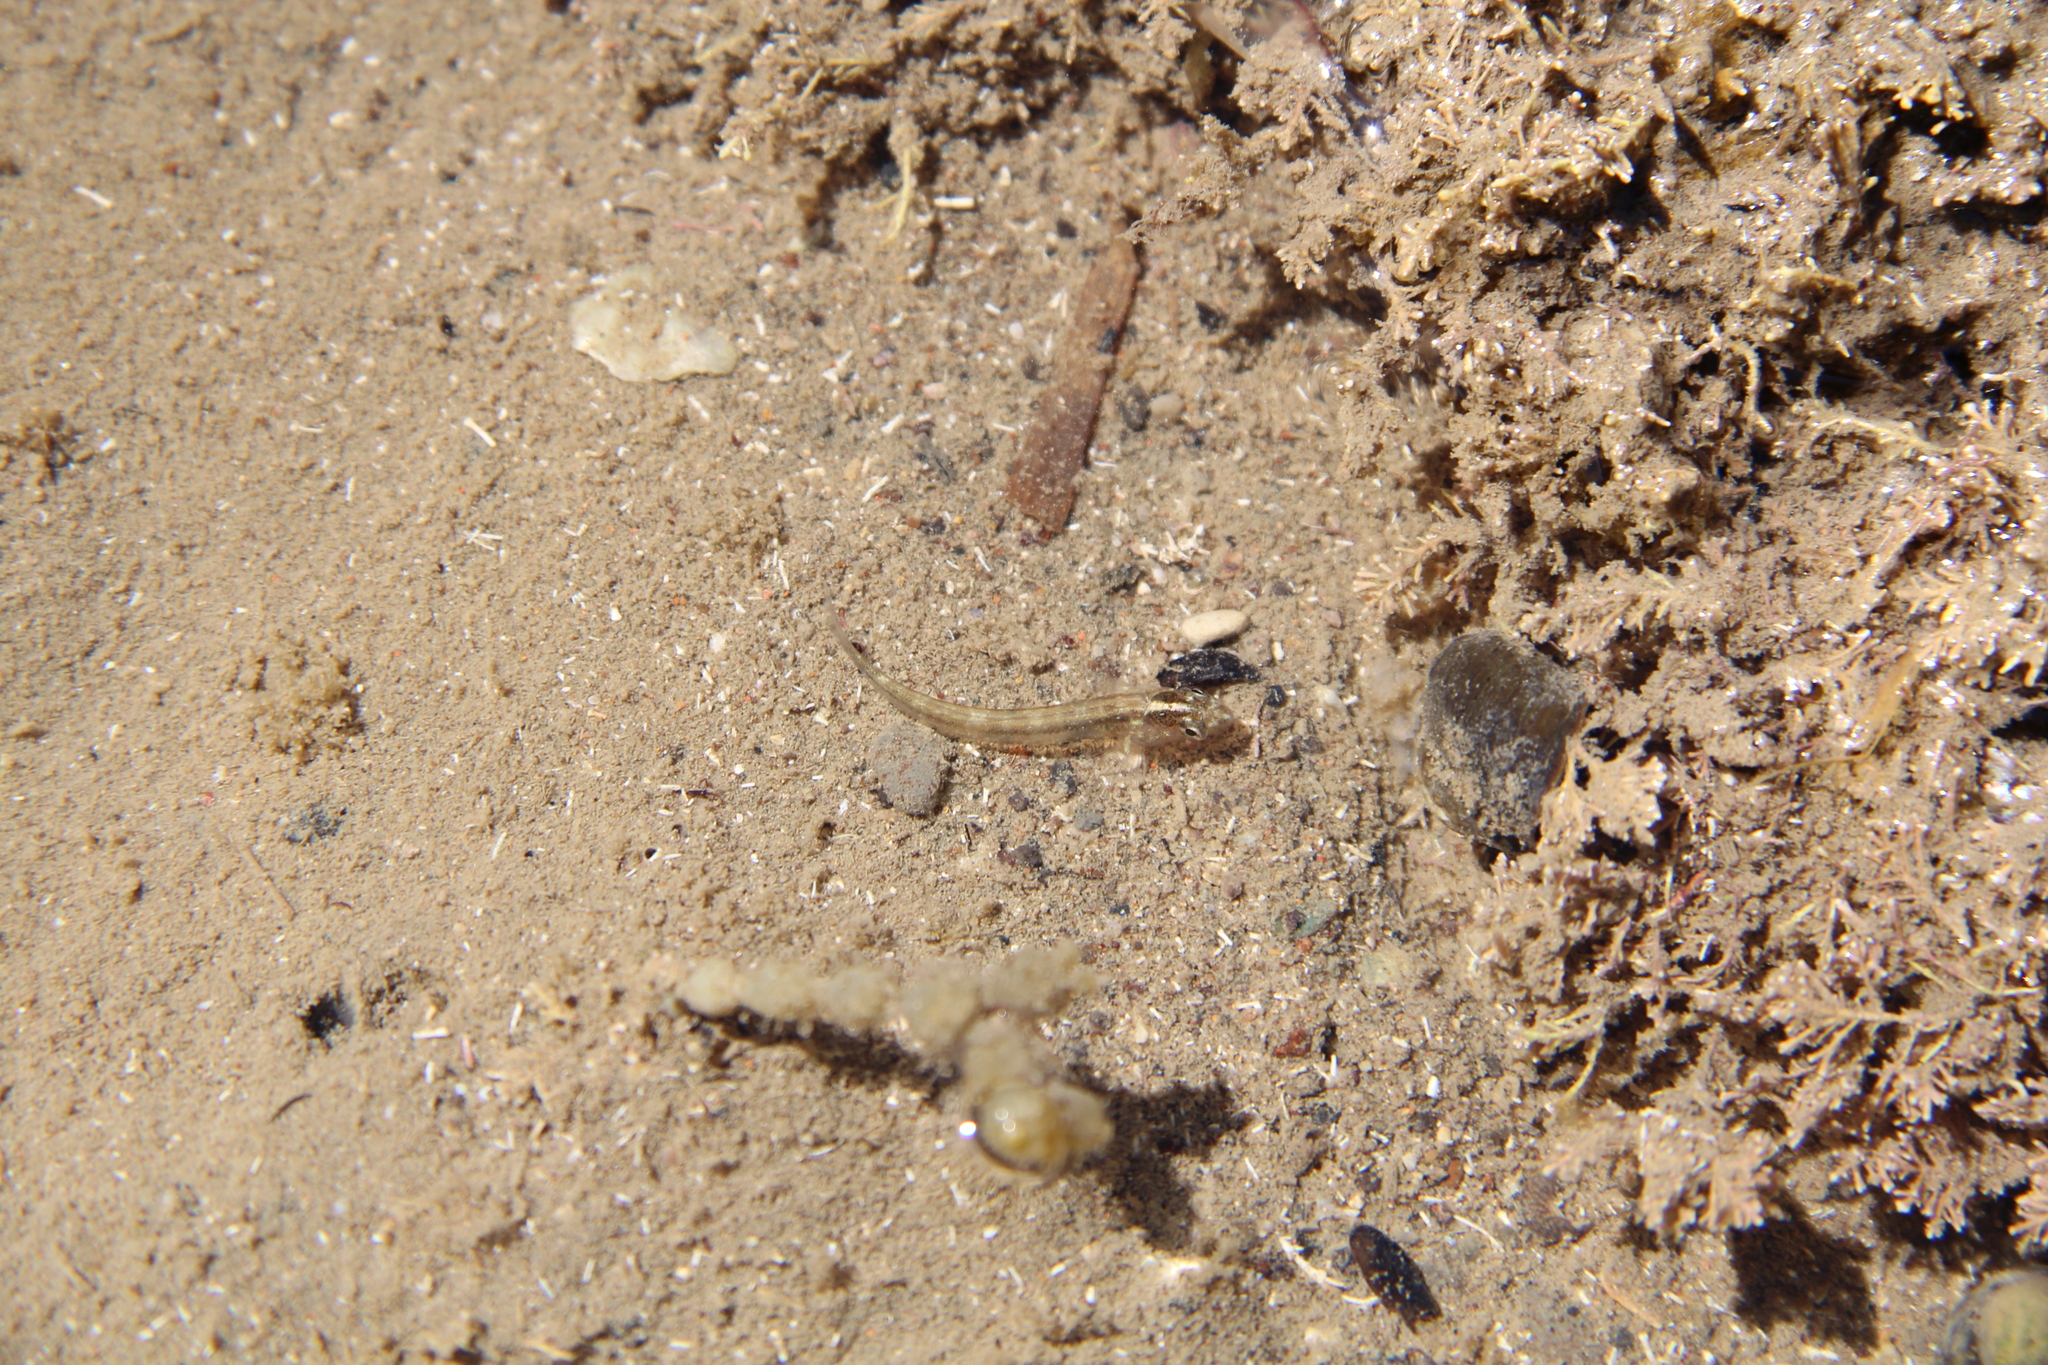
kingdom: Animalia
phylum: Chordata
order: Perciformes
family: Tripterygiidae
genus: Forsterygion
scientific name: Forsterygion lapillum
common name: Common triplefin
